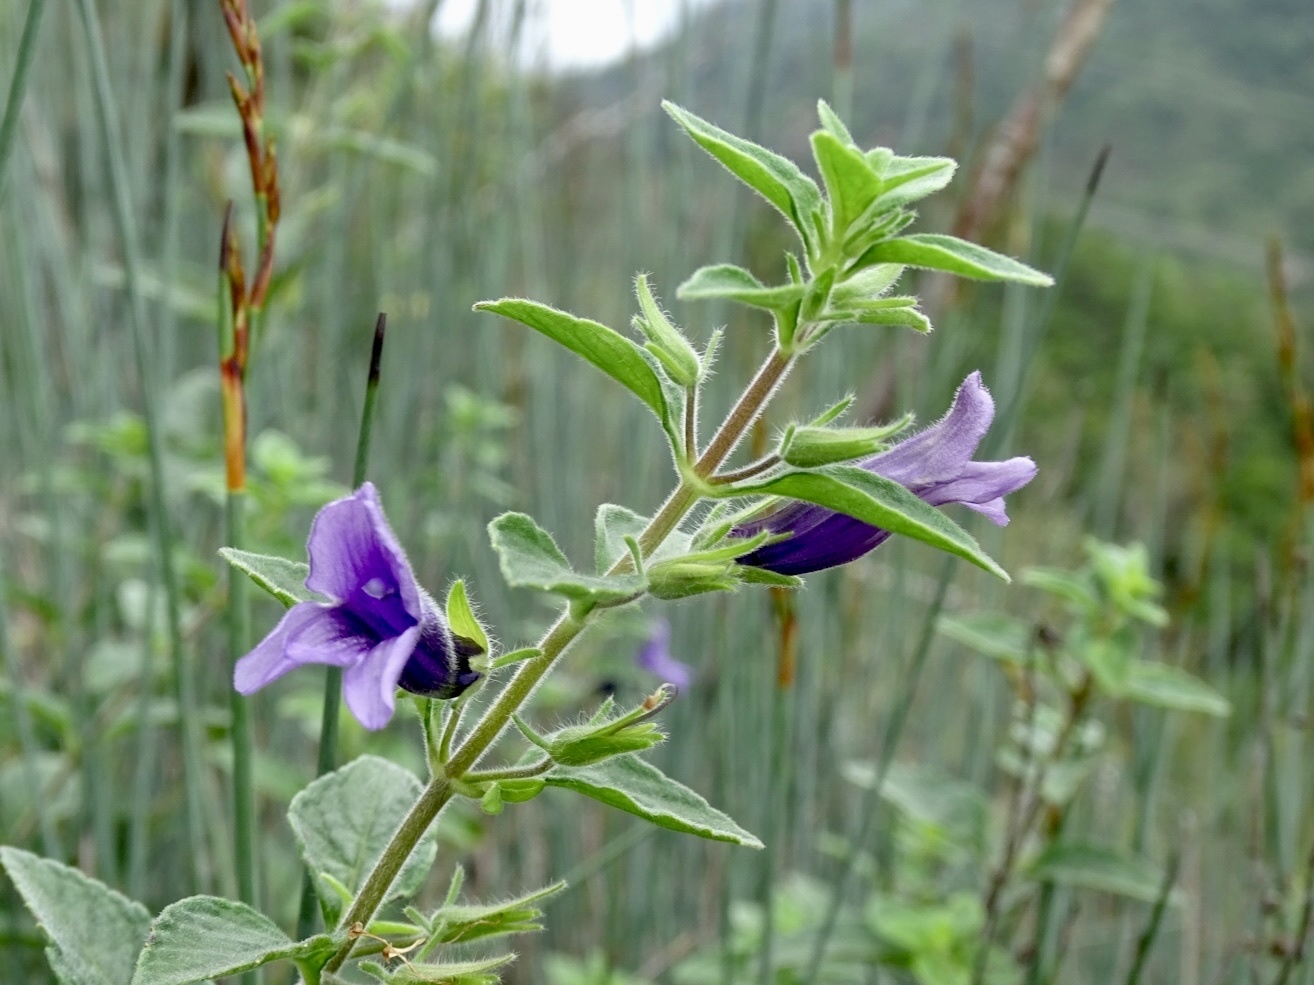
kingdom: Plantae
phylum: Tracheophyta
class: Magnoliopsida
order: Lamiales
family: Plantaginaceae
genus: Adenosma
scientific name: Adenosma glutinosa
